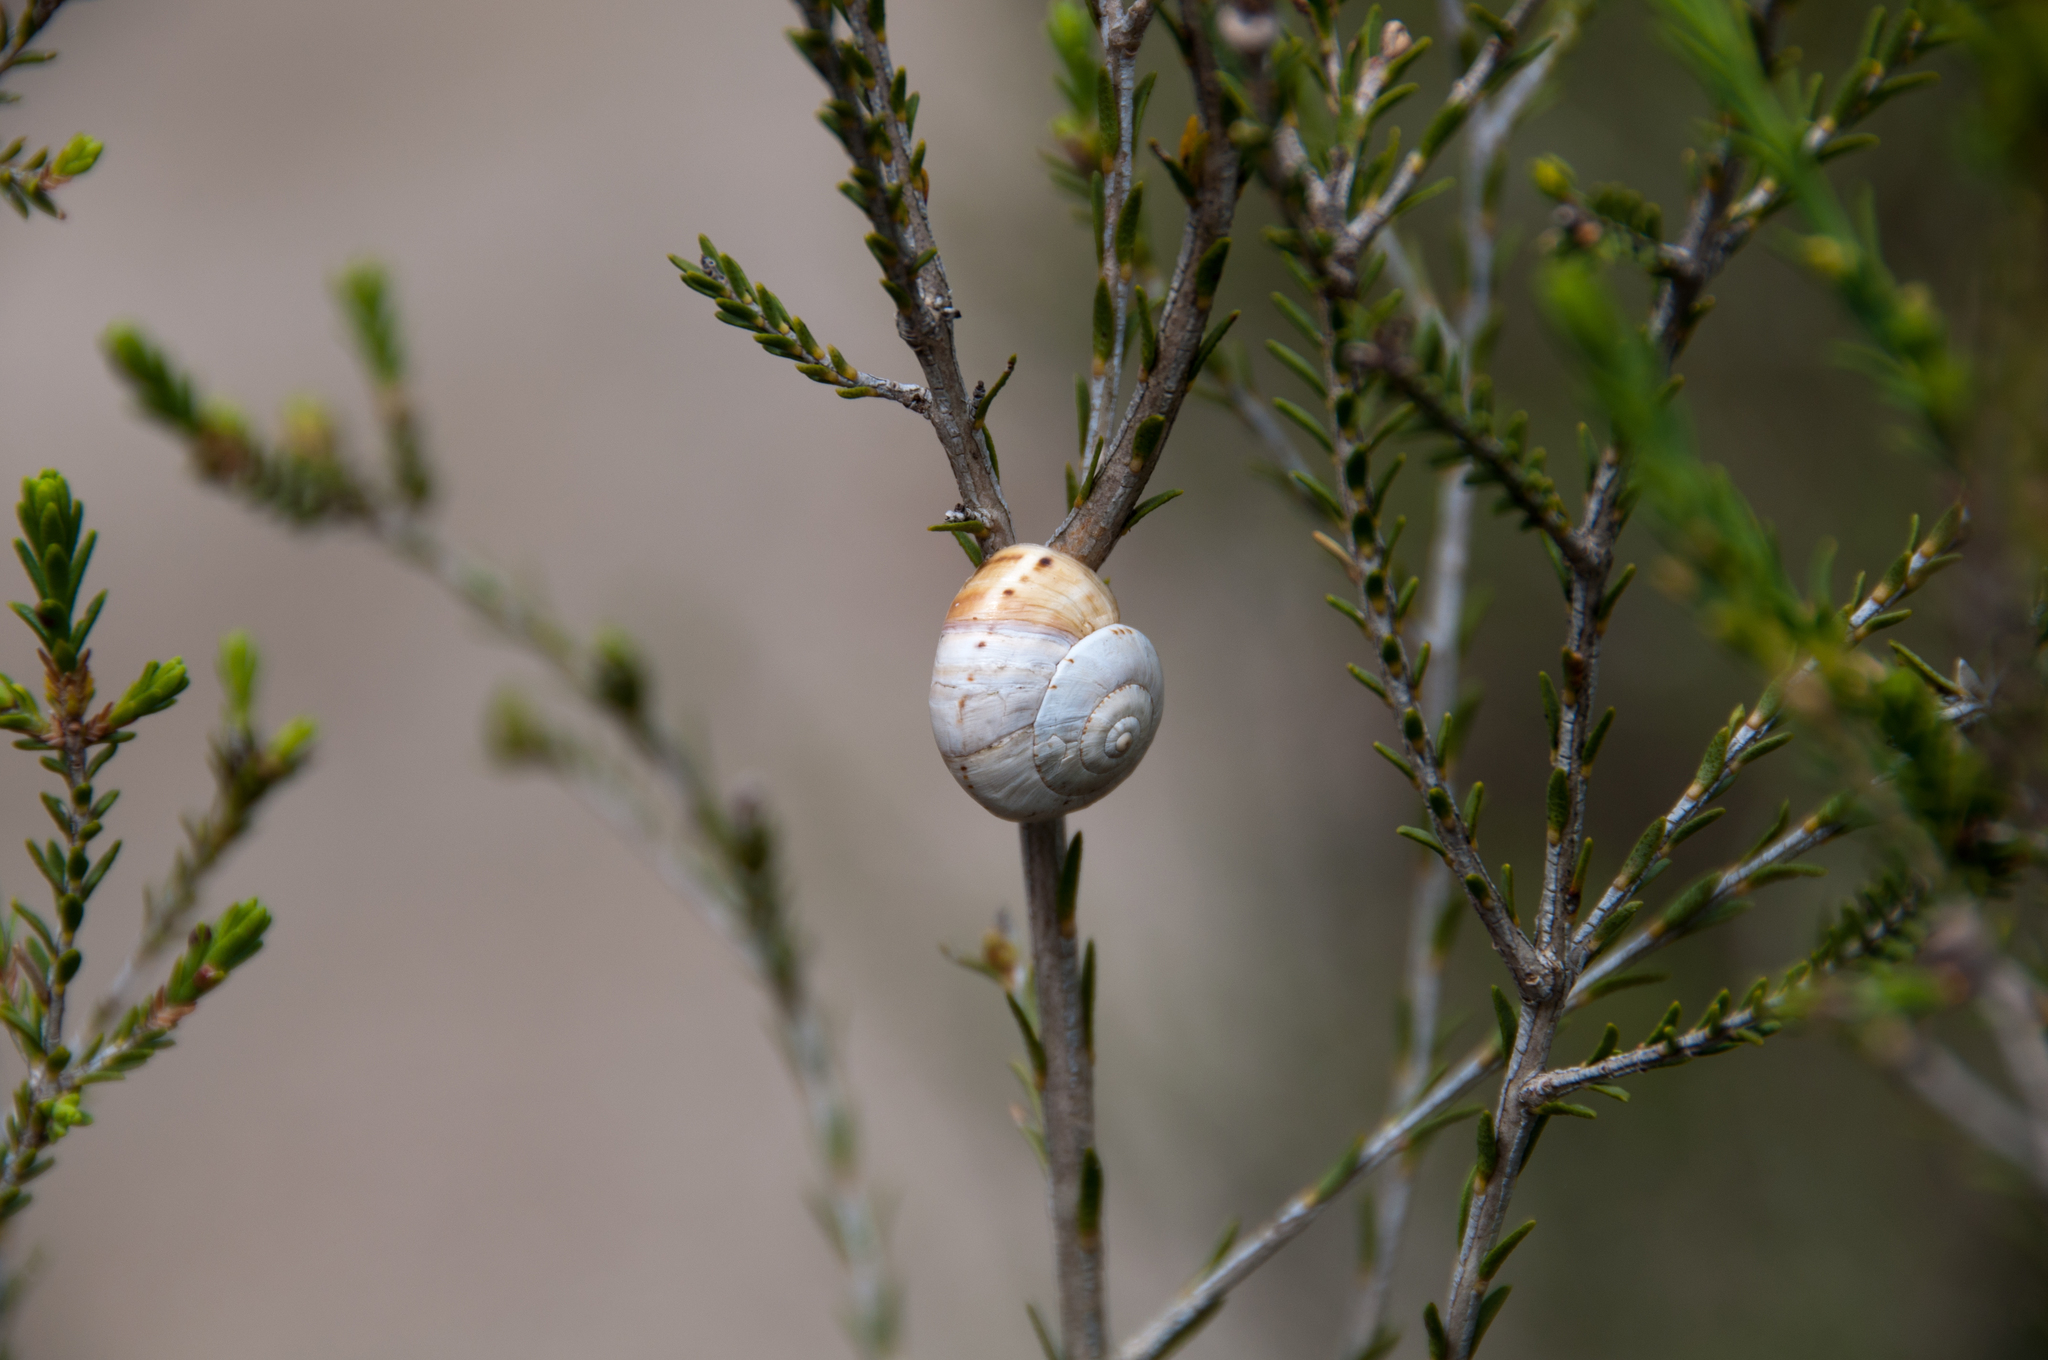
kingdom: Animalia
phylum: Mollusca
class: Gastropoda
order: Stylommatophora
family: Helicidae
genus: Theba
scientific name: Theba pisana
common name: White snail
